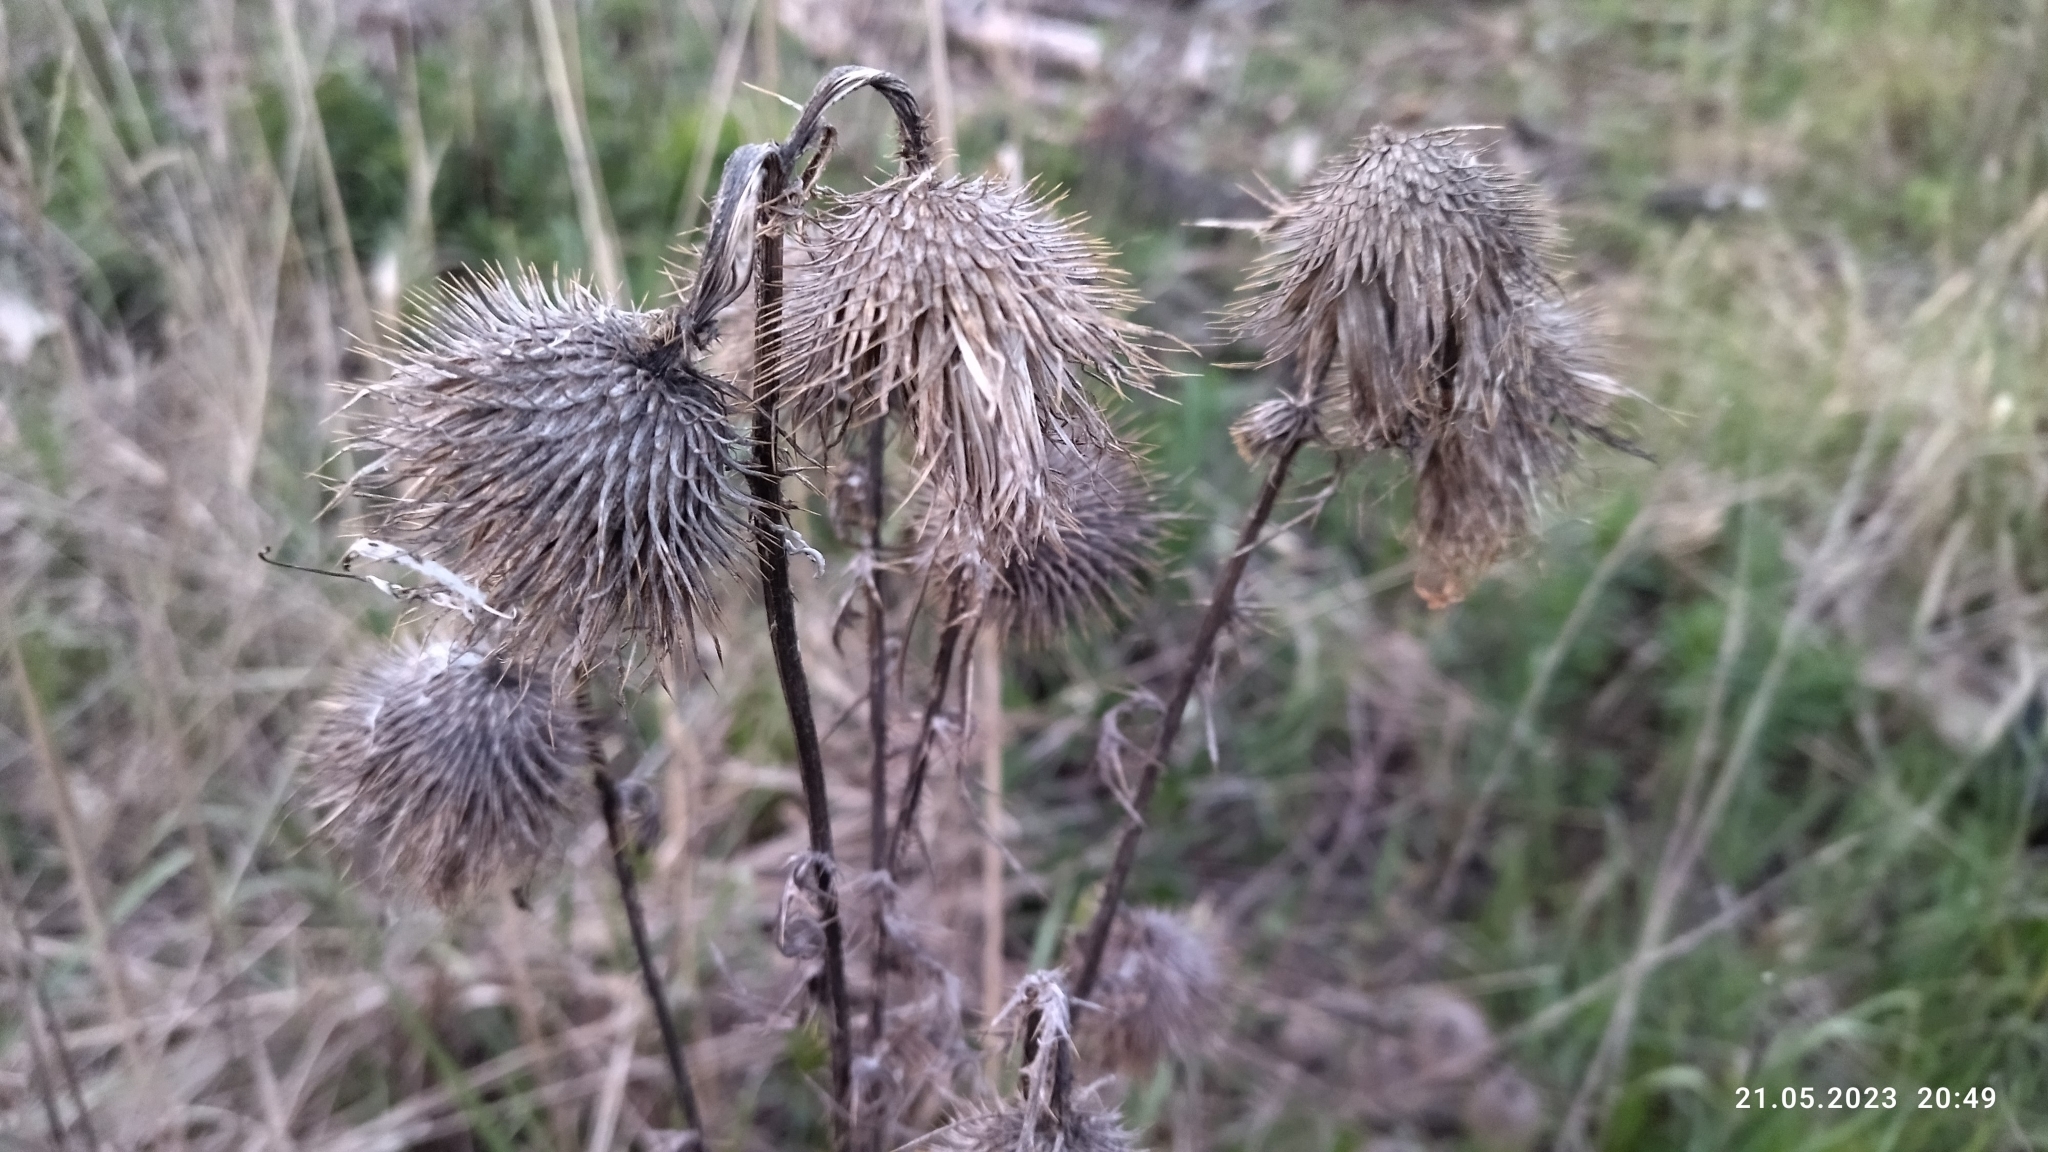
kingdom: Plantae
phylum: Tracheophyta
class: Magnoliopsida
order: Asterales
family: Asteraceae
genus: Cirsium
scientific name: Cirsium vulgare
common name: Bull thistle
